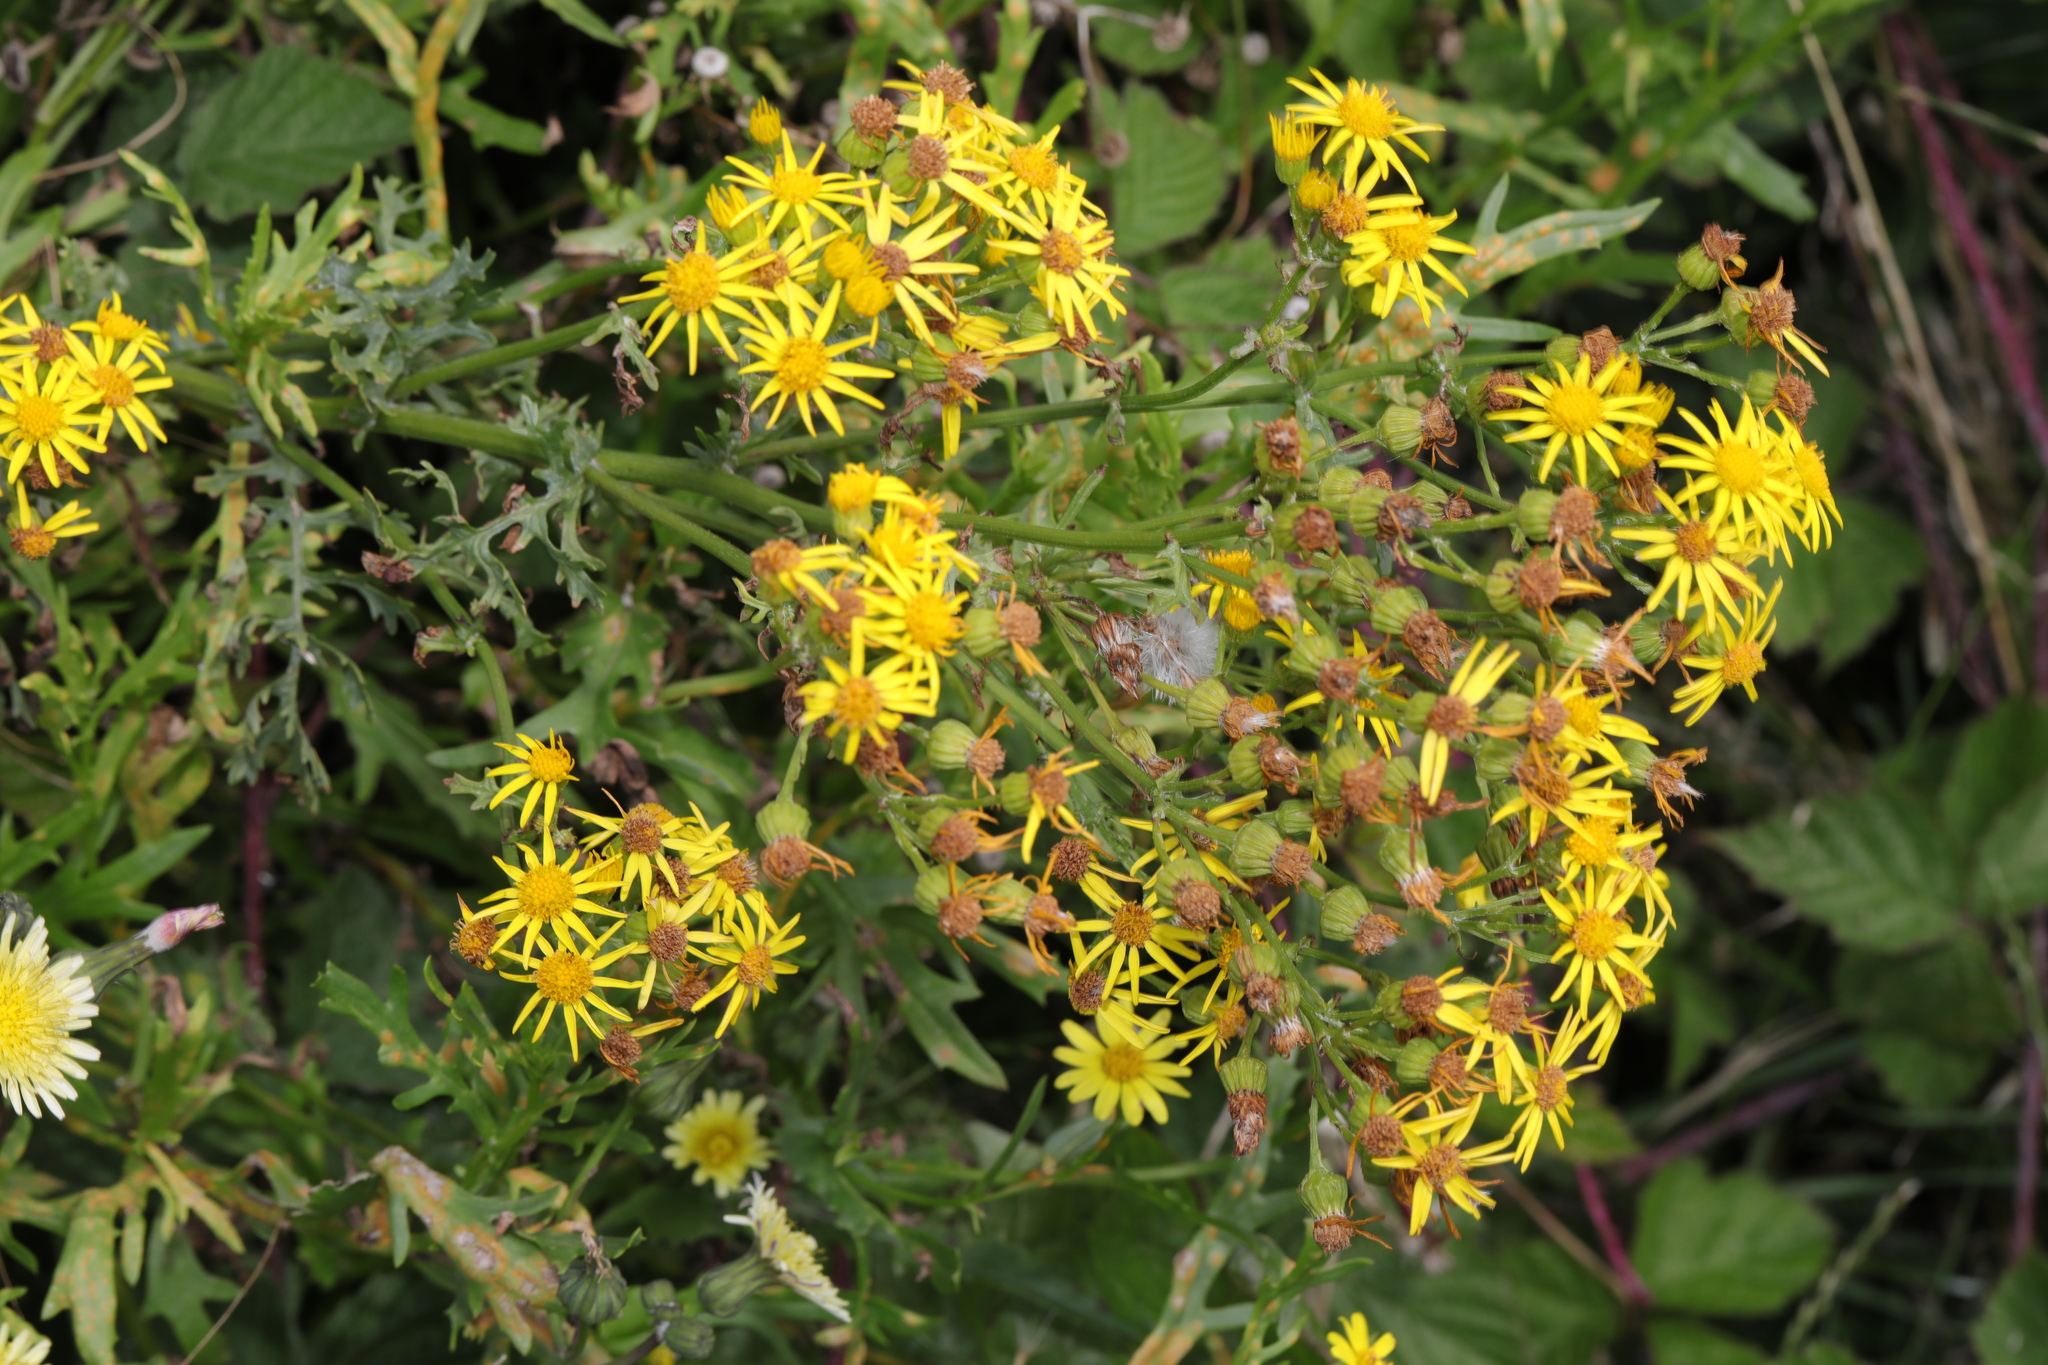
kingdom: Plantae
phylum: Tracheophyta
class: Magnoliopsida
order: Asterales
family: Asteraceae
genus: Jacobaea
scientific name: Jacobaea vulgaris
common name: Stinking willie
